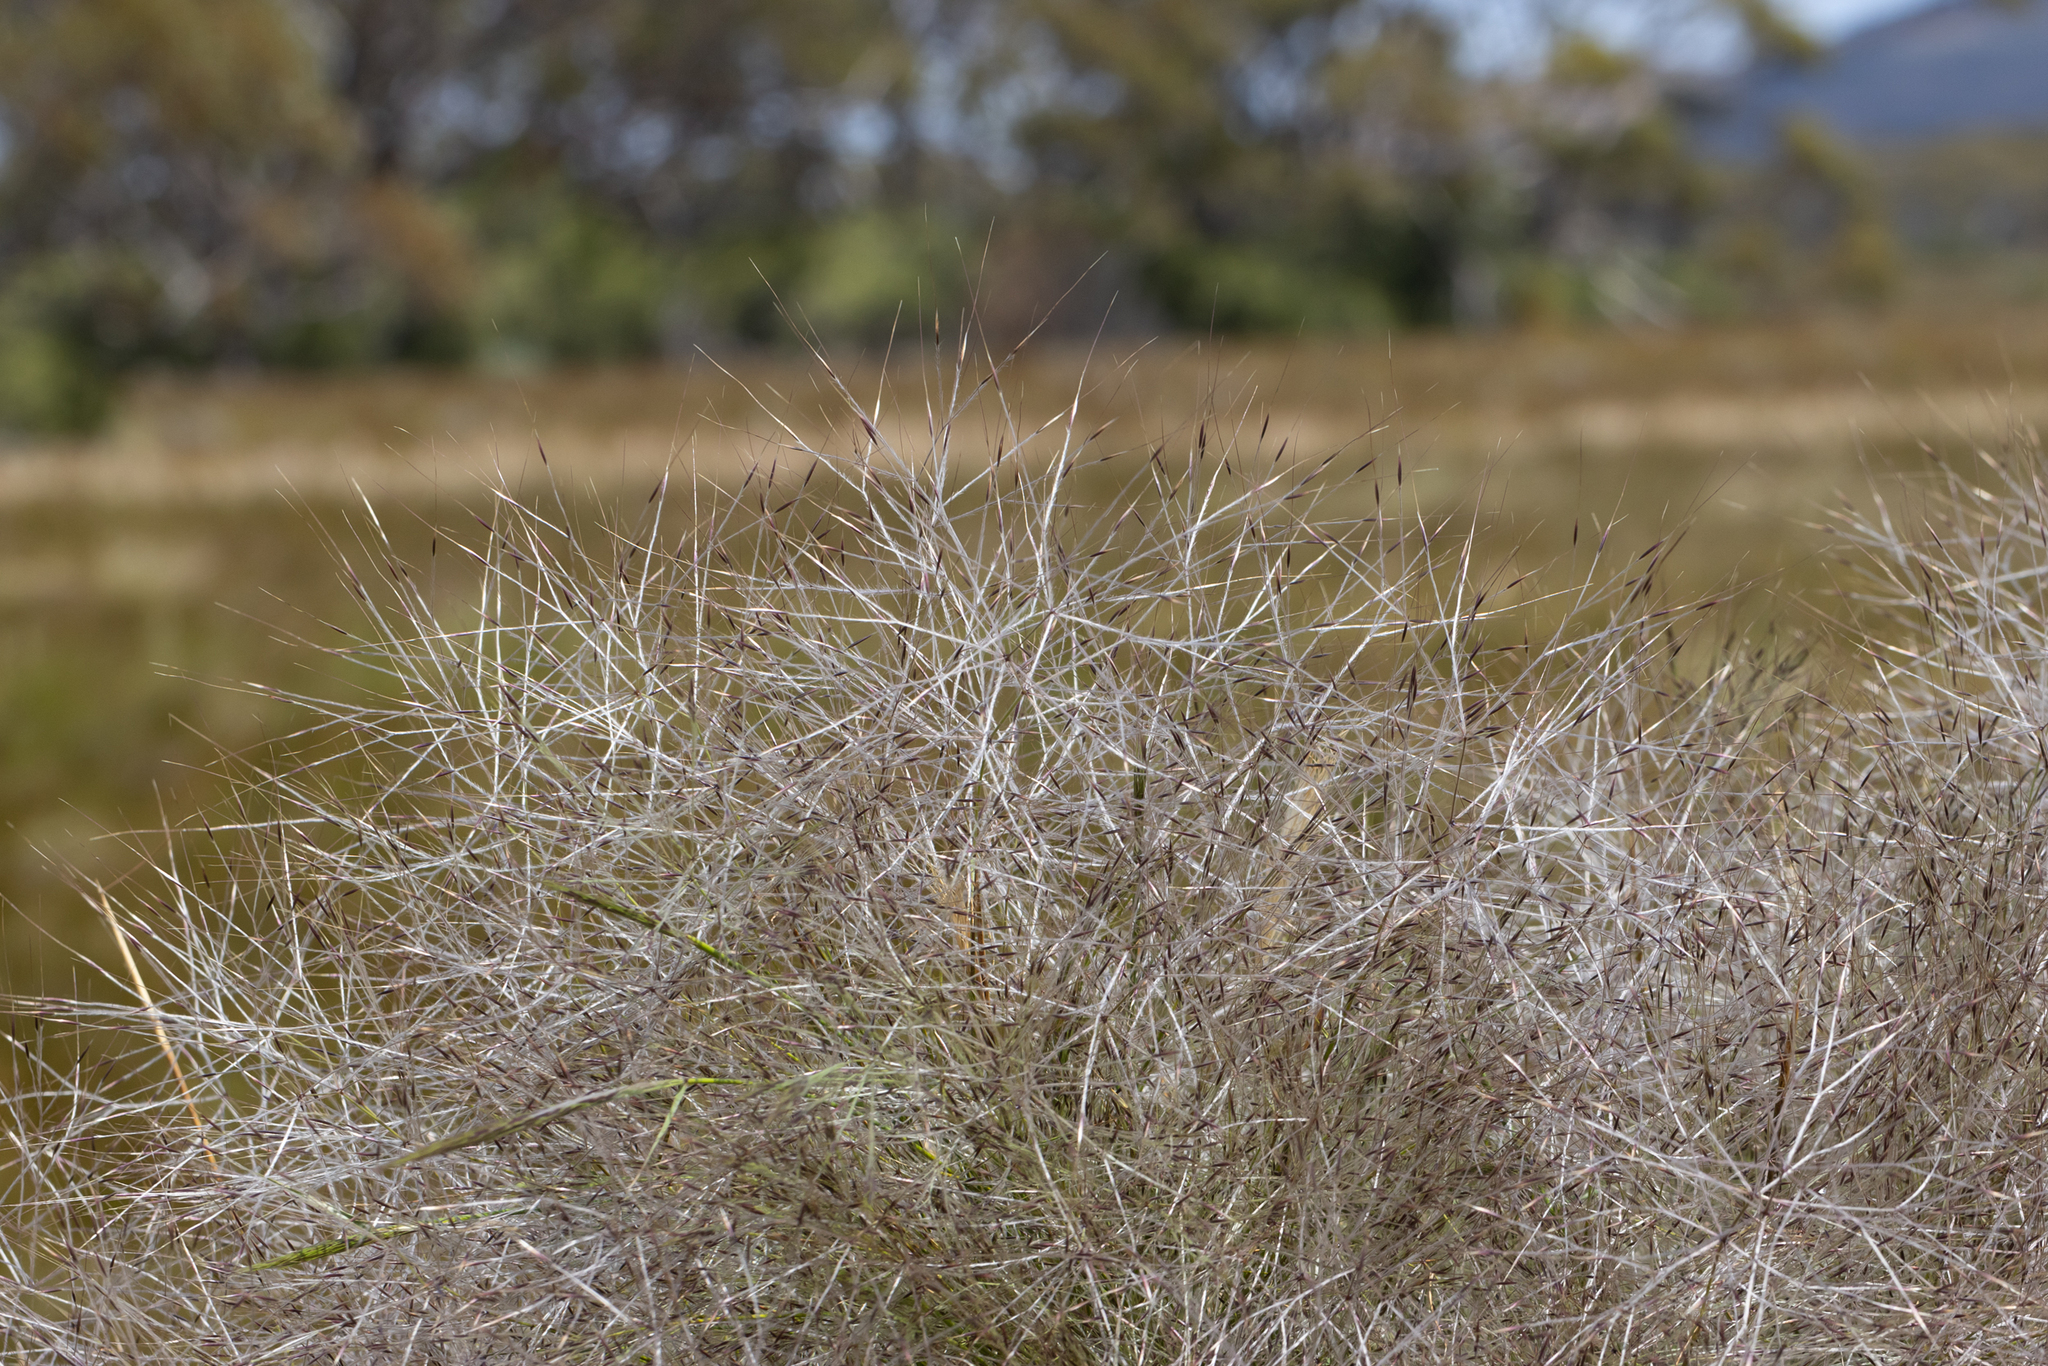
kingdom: Plantae
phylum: Tracheophyta
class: Liliopsida
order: Poales
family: Poaceae
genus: Austrostipa
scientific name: Austrostipa elegantissima
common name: Feather spear grass
